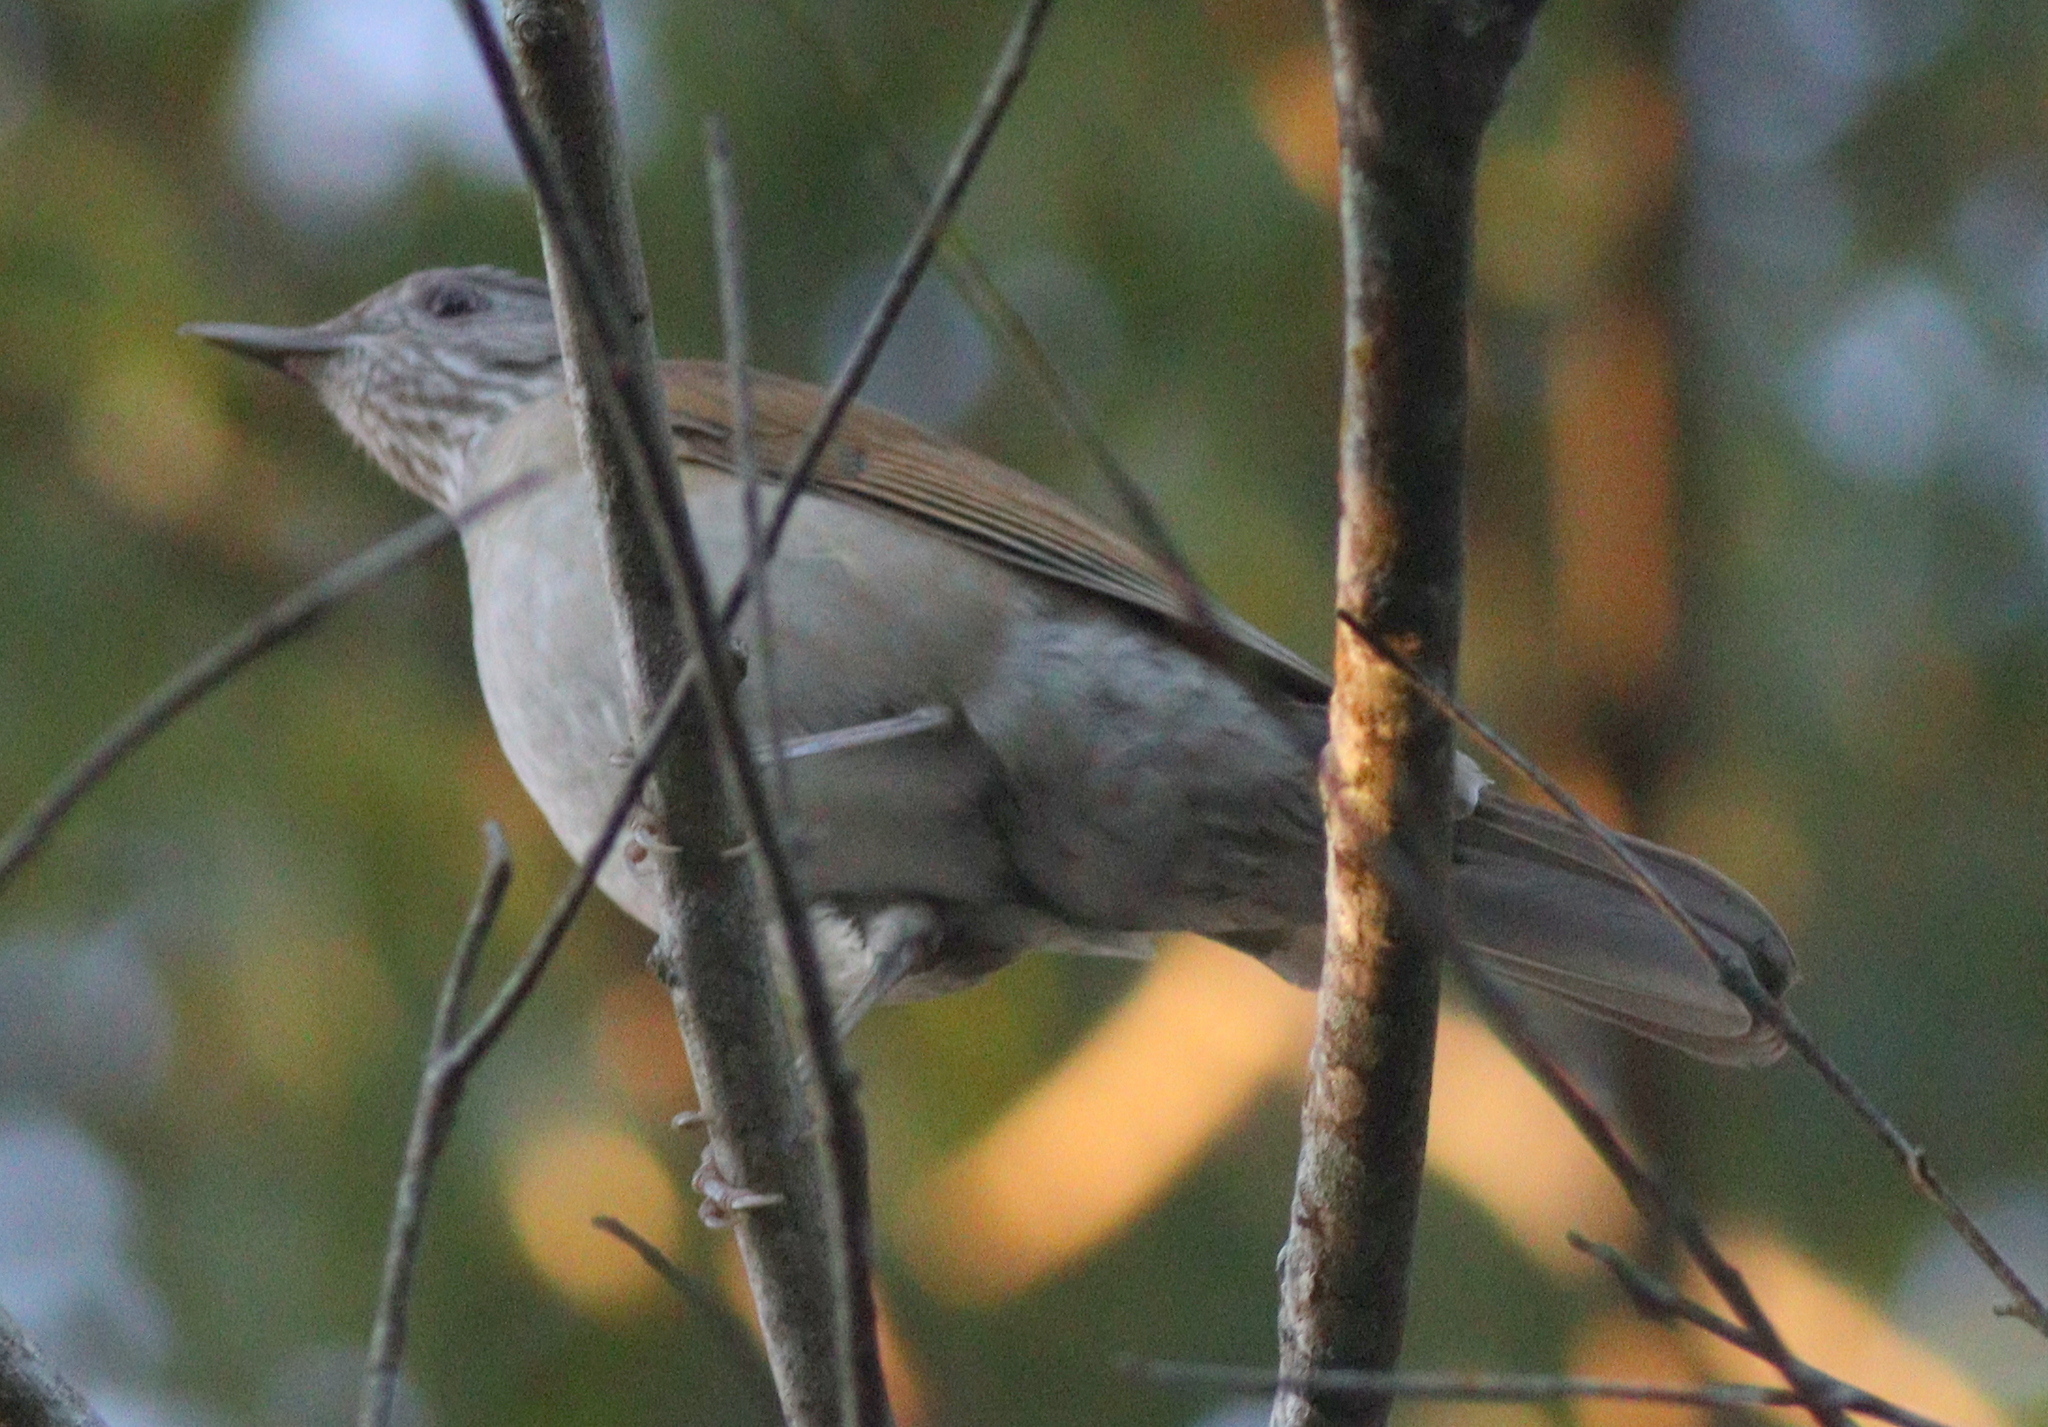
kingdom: Animalia
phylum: Chordata
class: Aves
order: Passeriformes
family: Turdidae
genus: Turdus
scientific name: Turdus leucomelas
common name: Pale-breasted thrush
